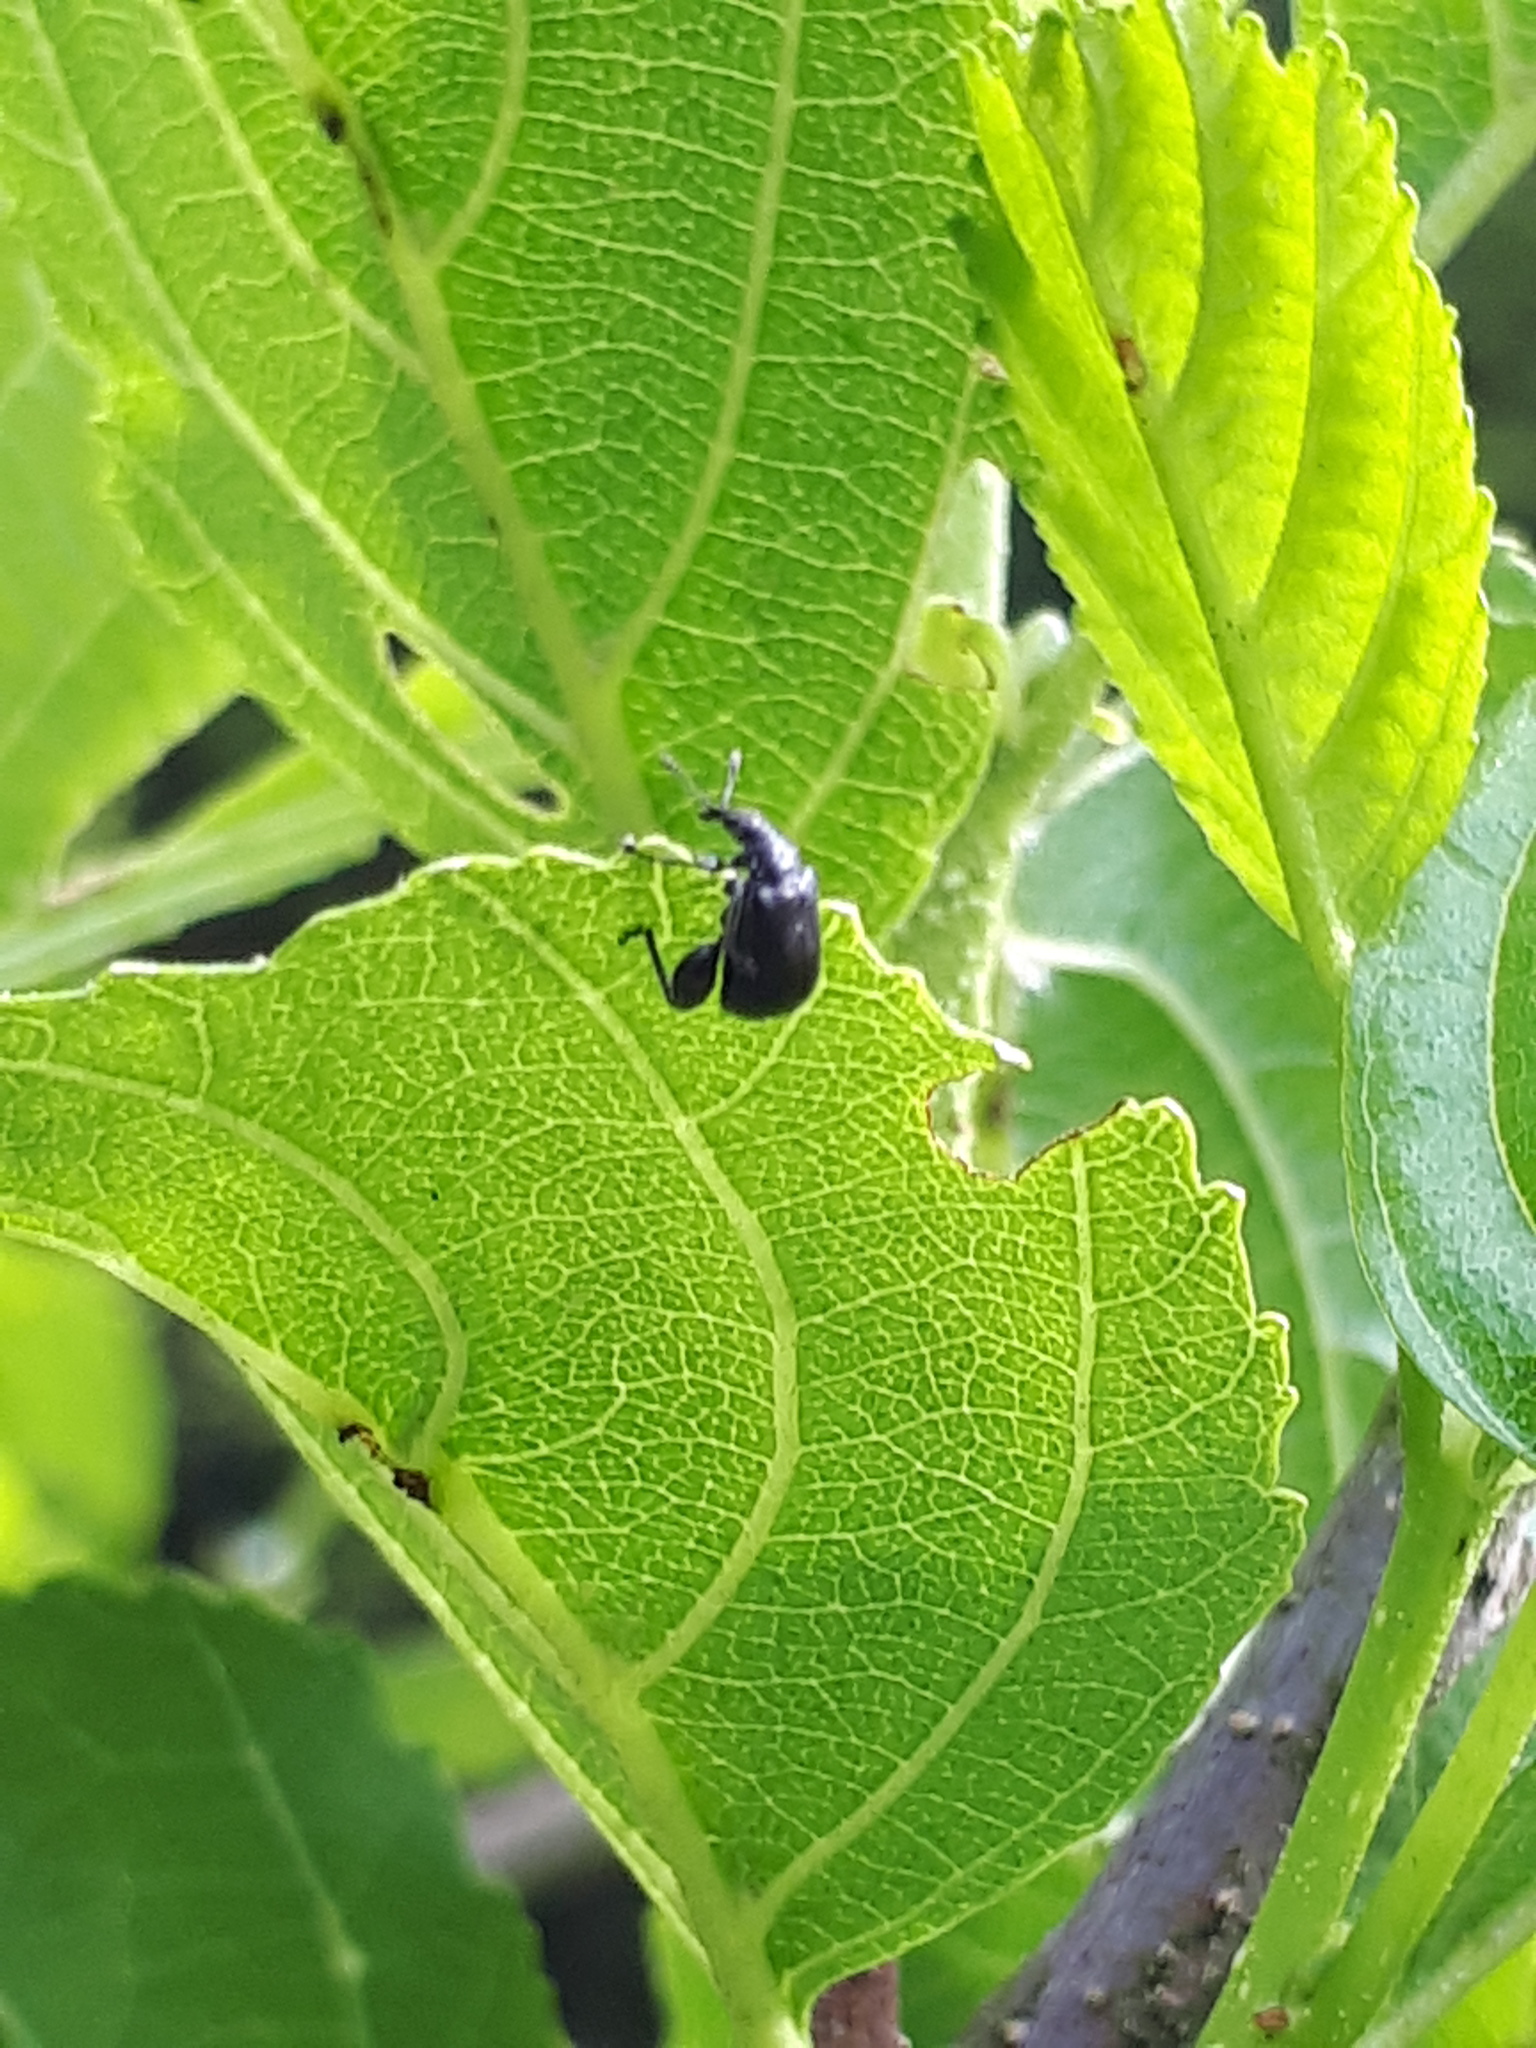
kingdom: Animalia
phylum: Arthropoda
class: Insecta
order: Coleoptera
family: Attelabidae
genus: Deporaus
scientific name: Deporaus betulae
